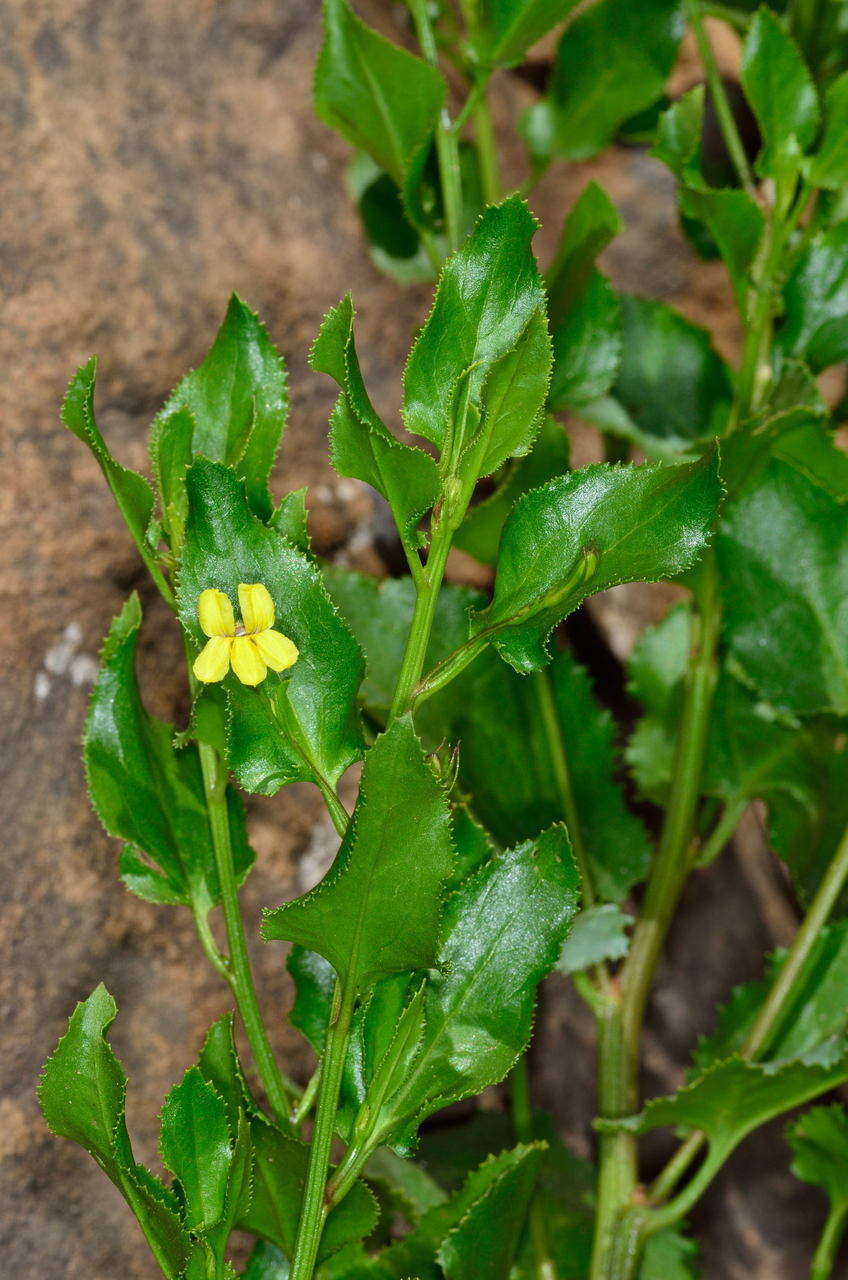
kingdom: Plantae
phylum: Tracheophyta
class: Magnoliopsida
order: Asterales
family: Goodeniaceae
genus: Goodenia
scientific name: Goodenia ovata
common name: Hop goodenia
